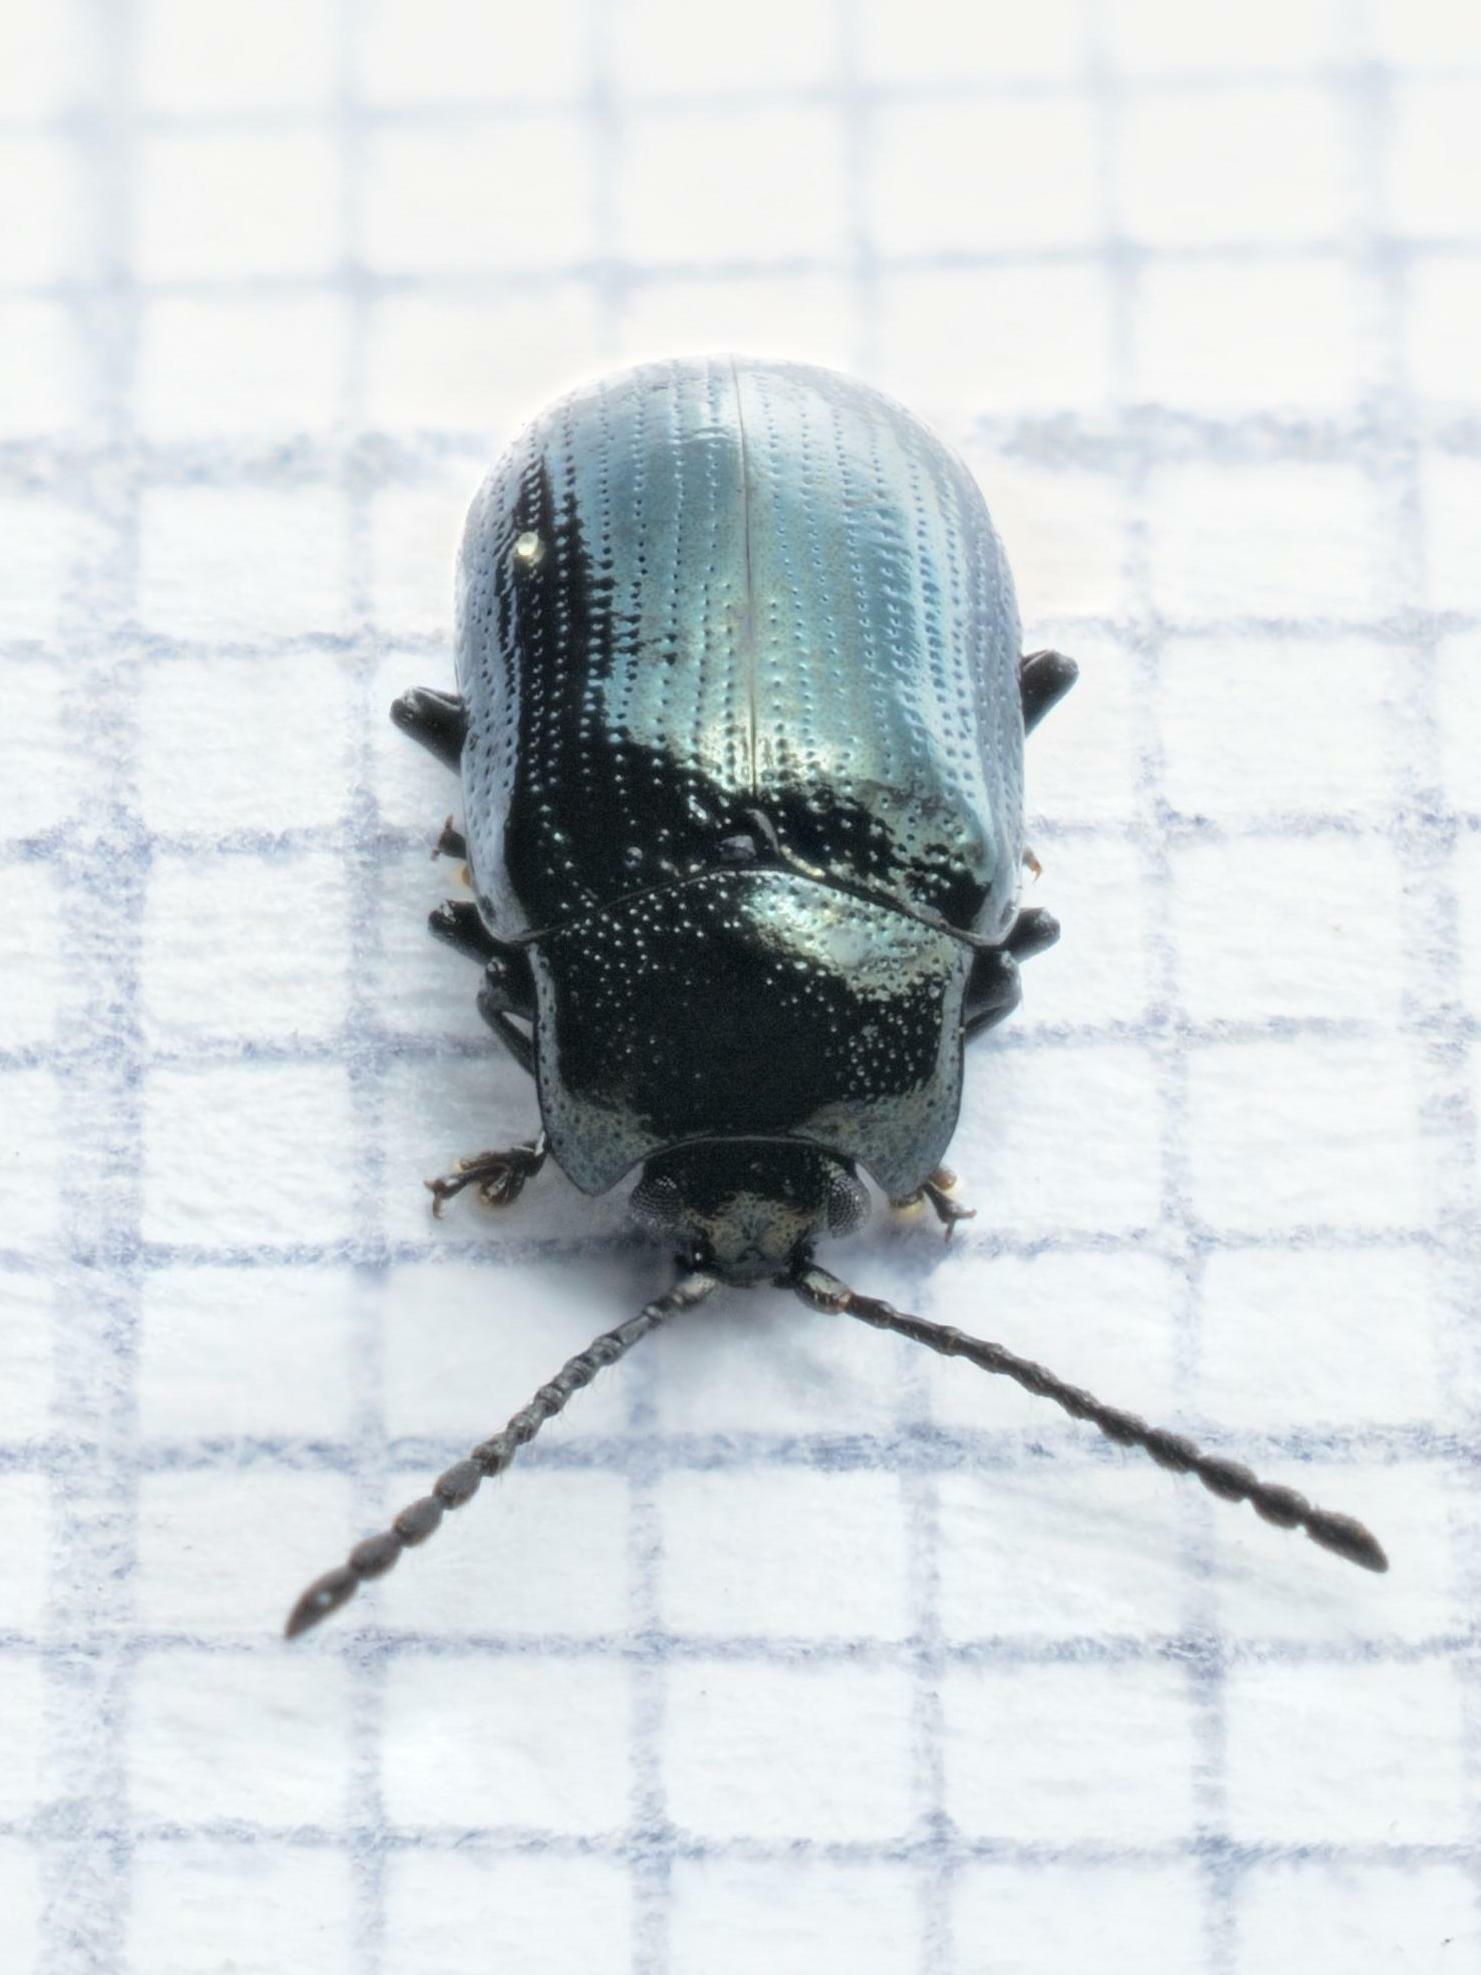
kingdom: Animalia
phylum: Arthropoda
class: Insecta
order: Coleoptera
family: Chrysomelidae
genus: Phratora
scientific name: Phratora laticollis
